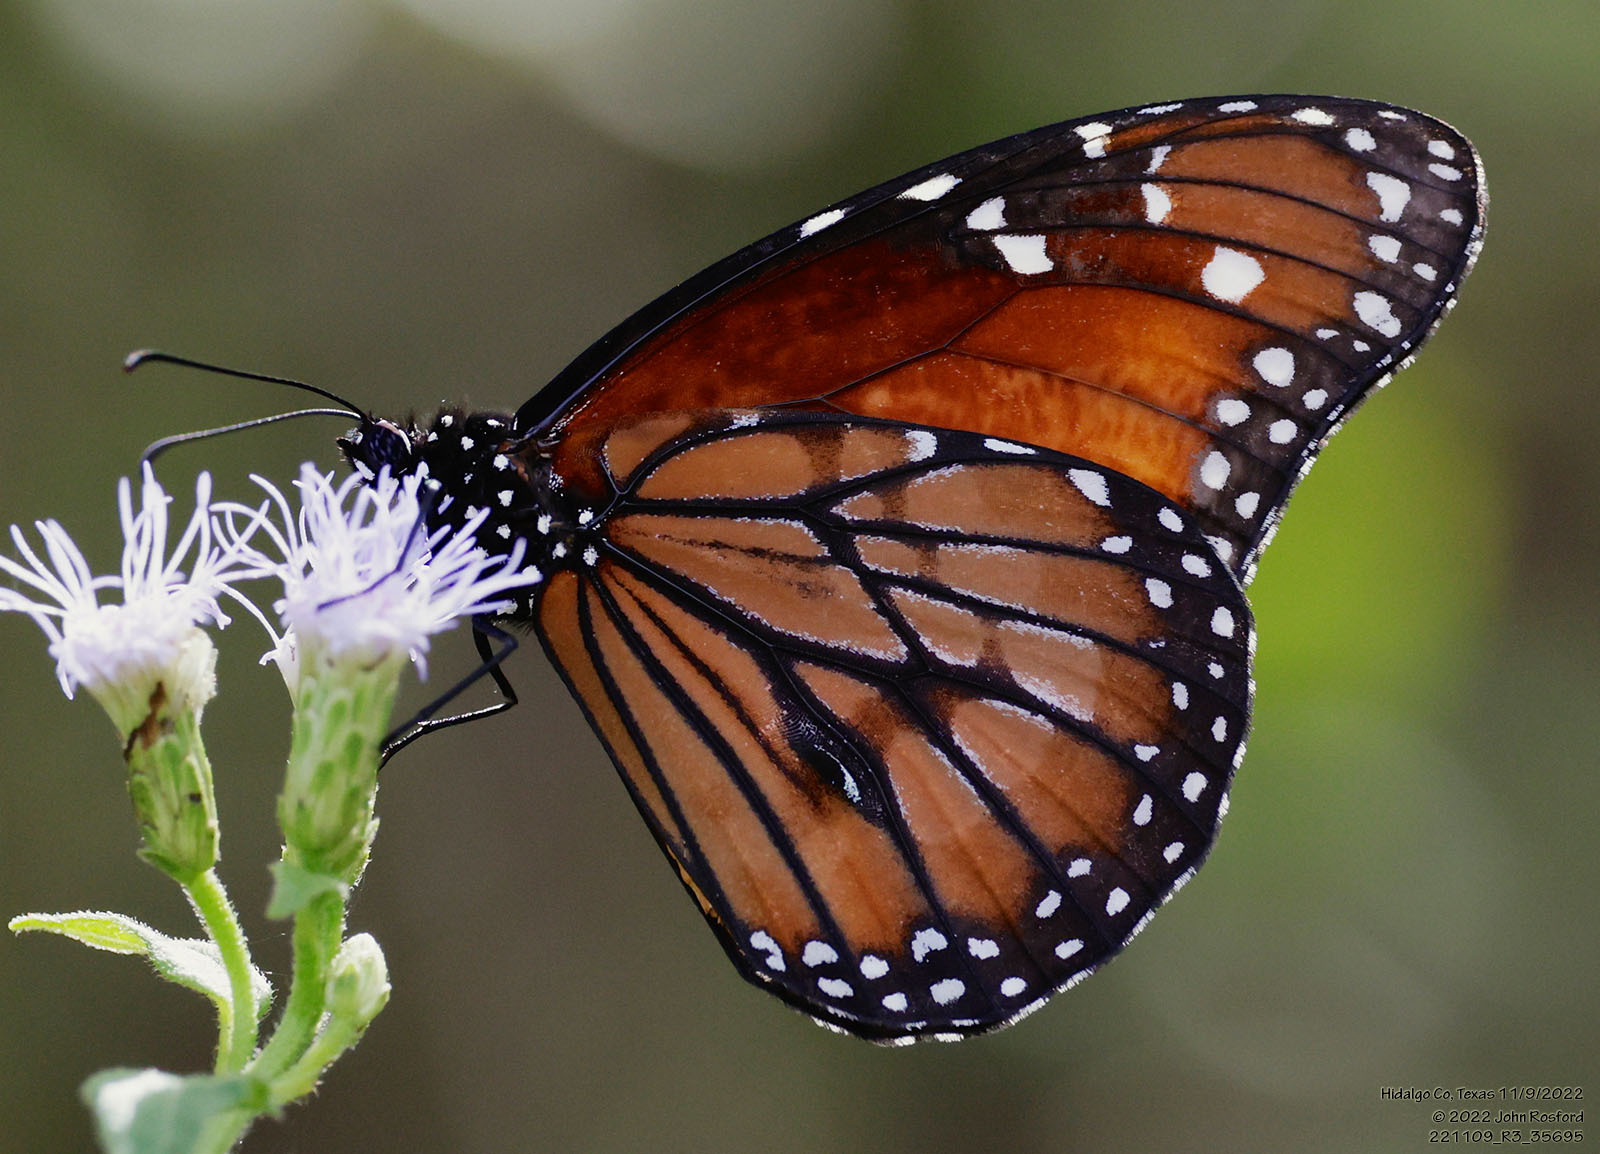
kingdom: Animalia
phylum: Arthropoda
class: Insecta
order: Lepidoptera
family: Nymphalidae
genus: Danaus
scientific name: Danaus eresimus
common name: Soldier
